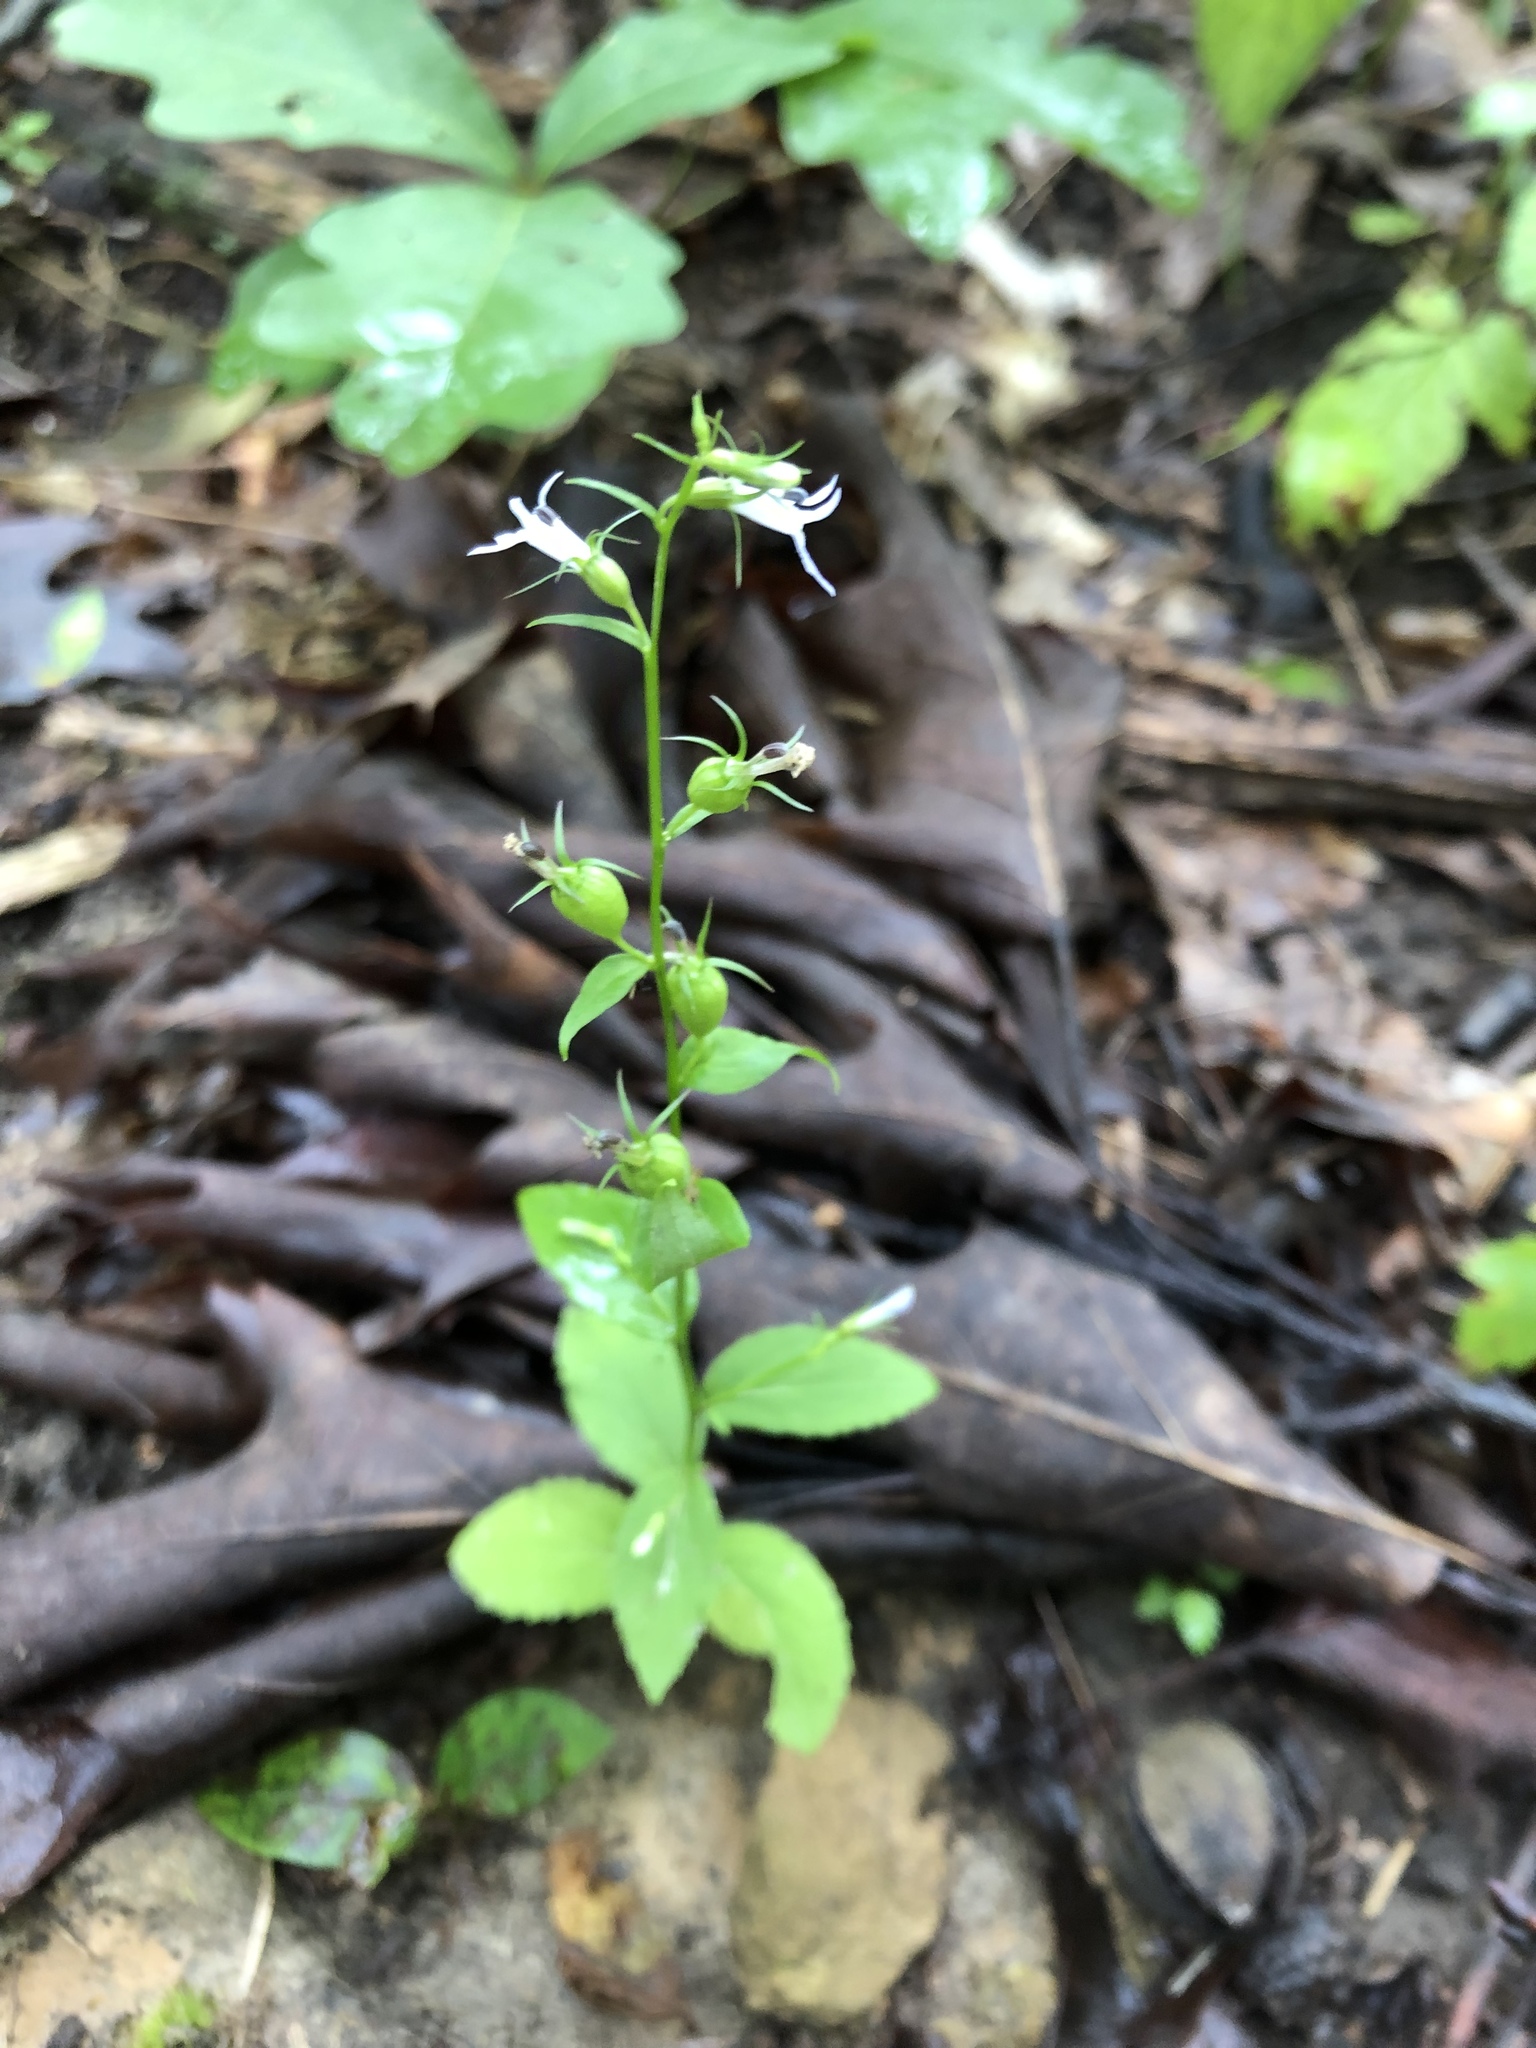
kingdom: Plantae
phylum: Tracheophyta
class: Magnoliopsida
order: Asterales
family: Campanulaceae
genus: Lobelia
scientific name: Lobelia inflata
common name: Indian tobacco
